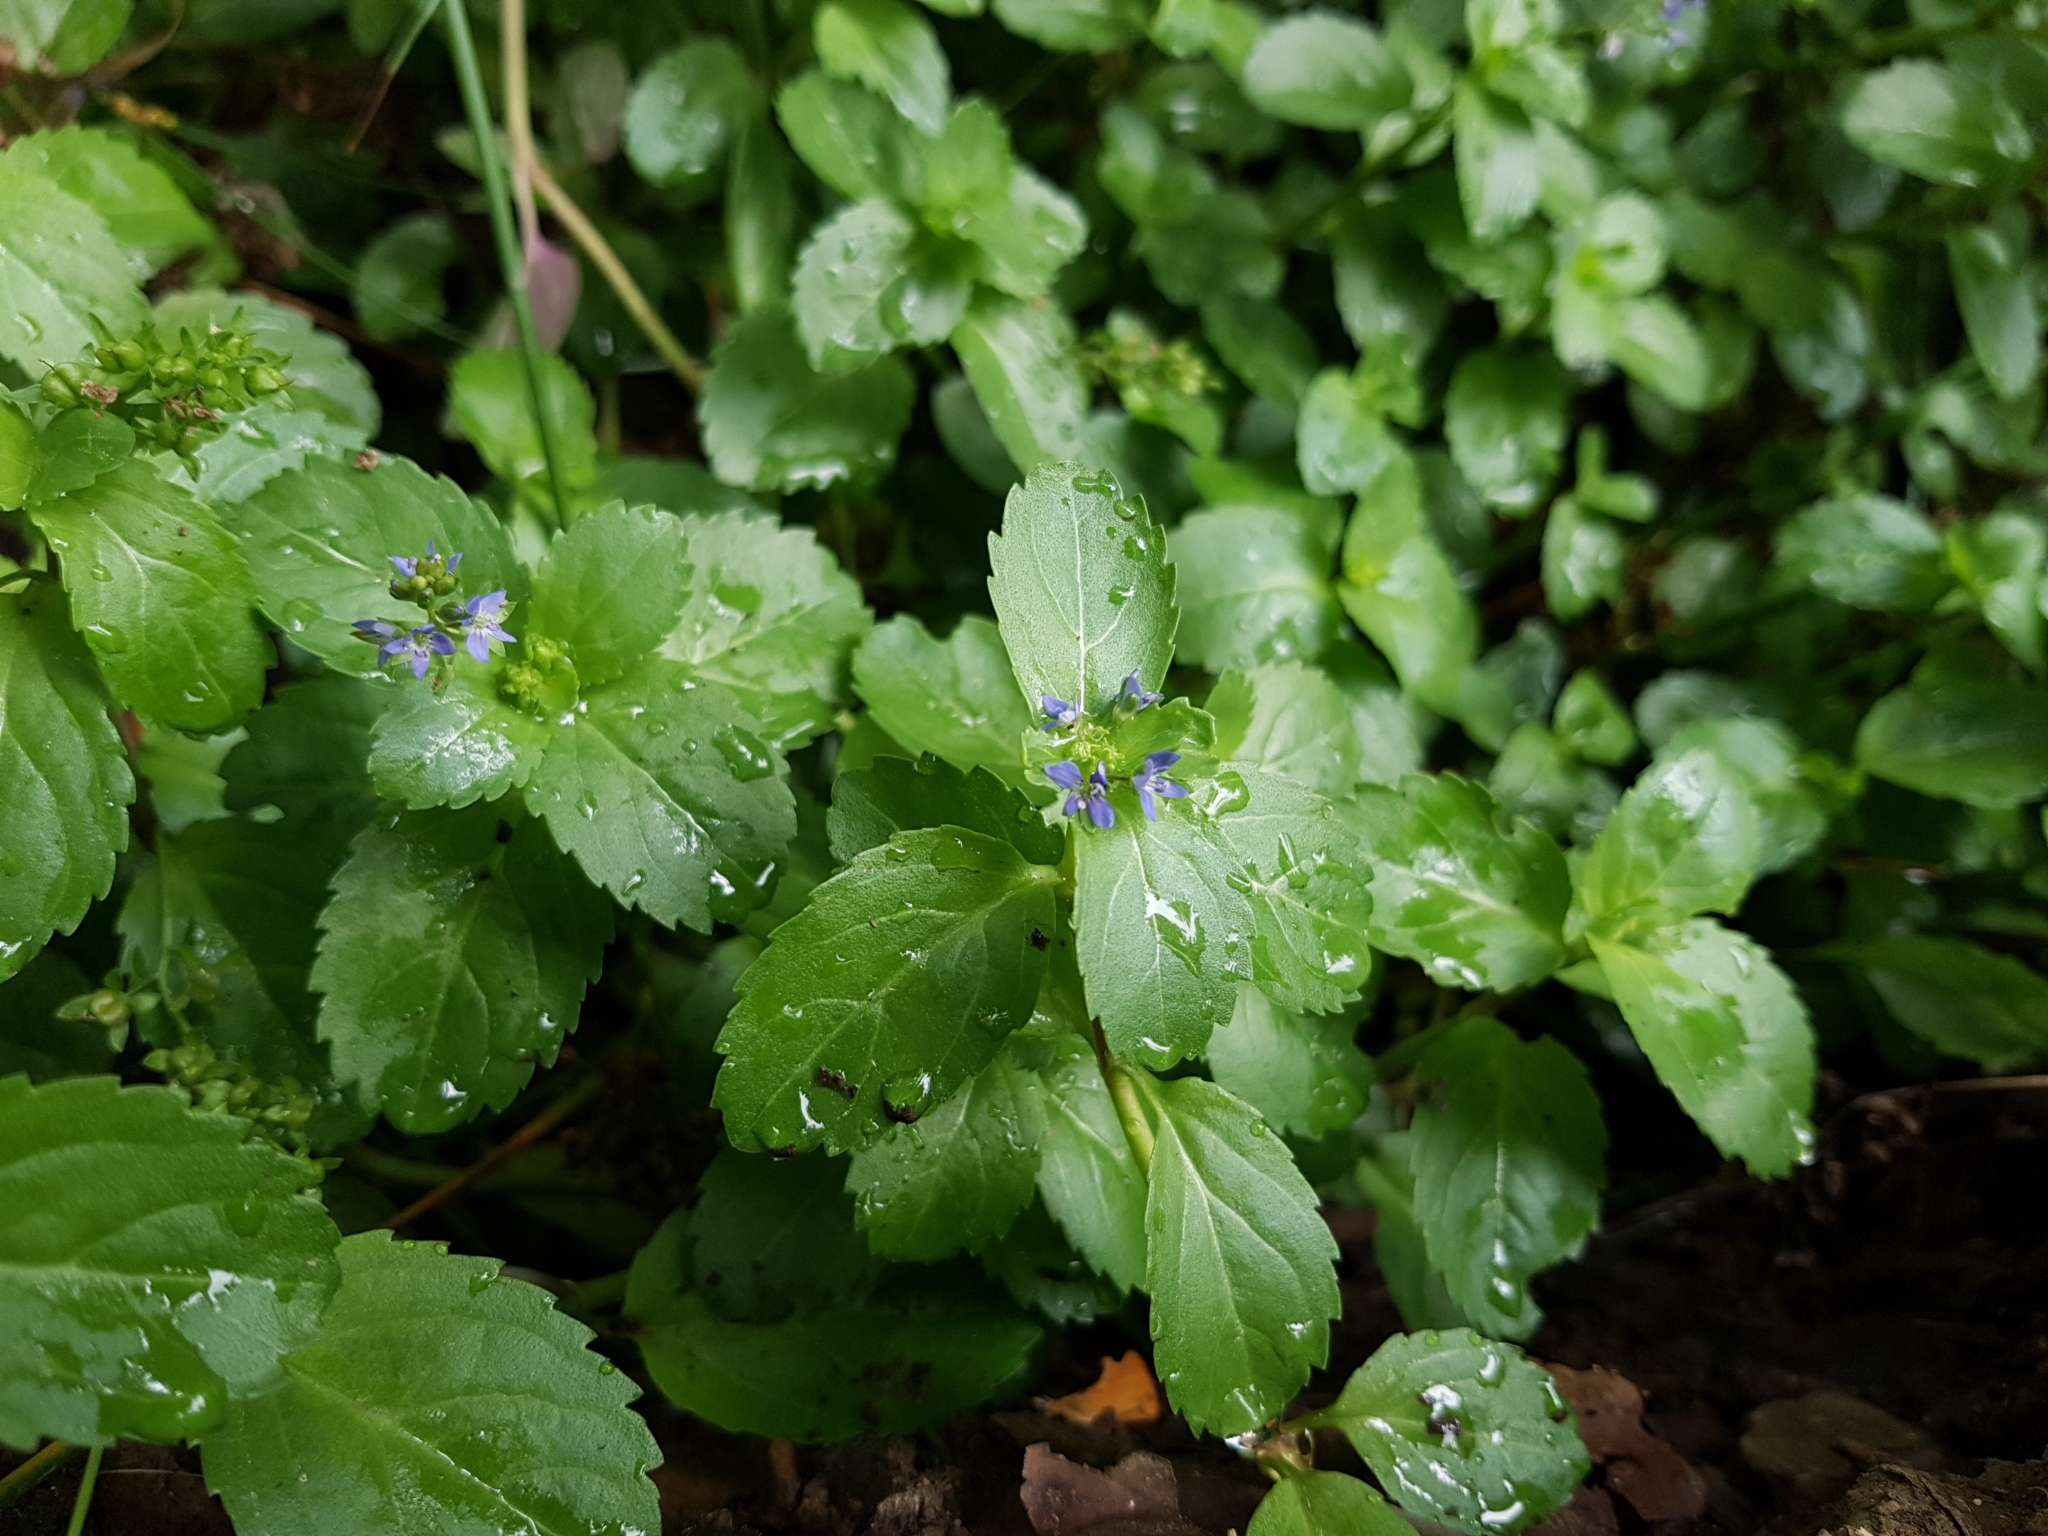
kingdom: Plantae
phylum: Tracheophyta
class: Magnoliopsida
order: Lamiales
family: Plantaginaceae
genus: Veronica
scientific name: Veronica beccabunga
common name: Brooklime
